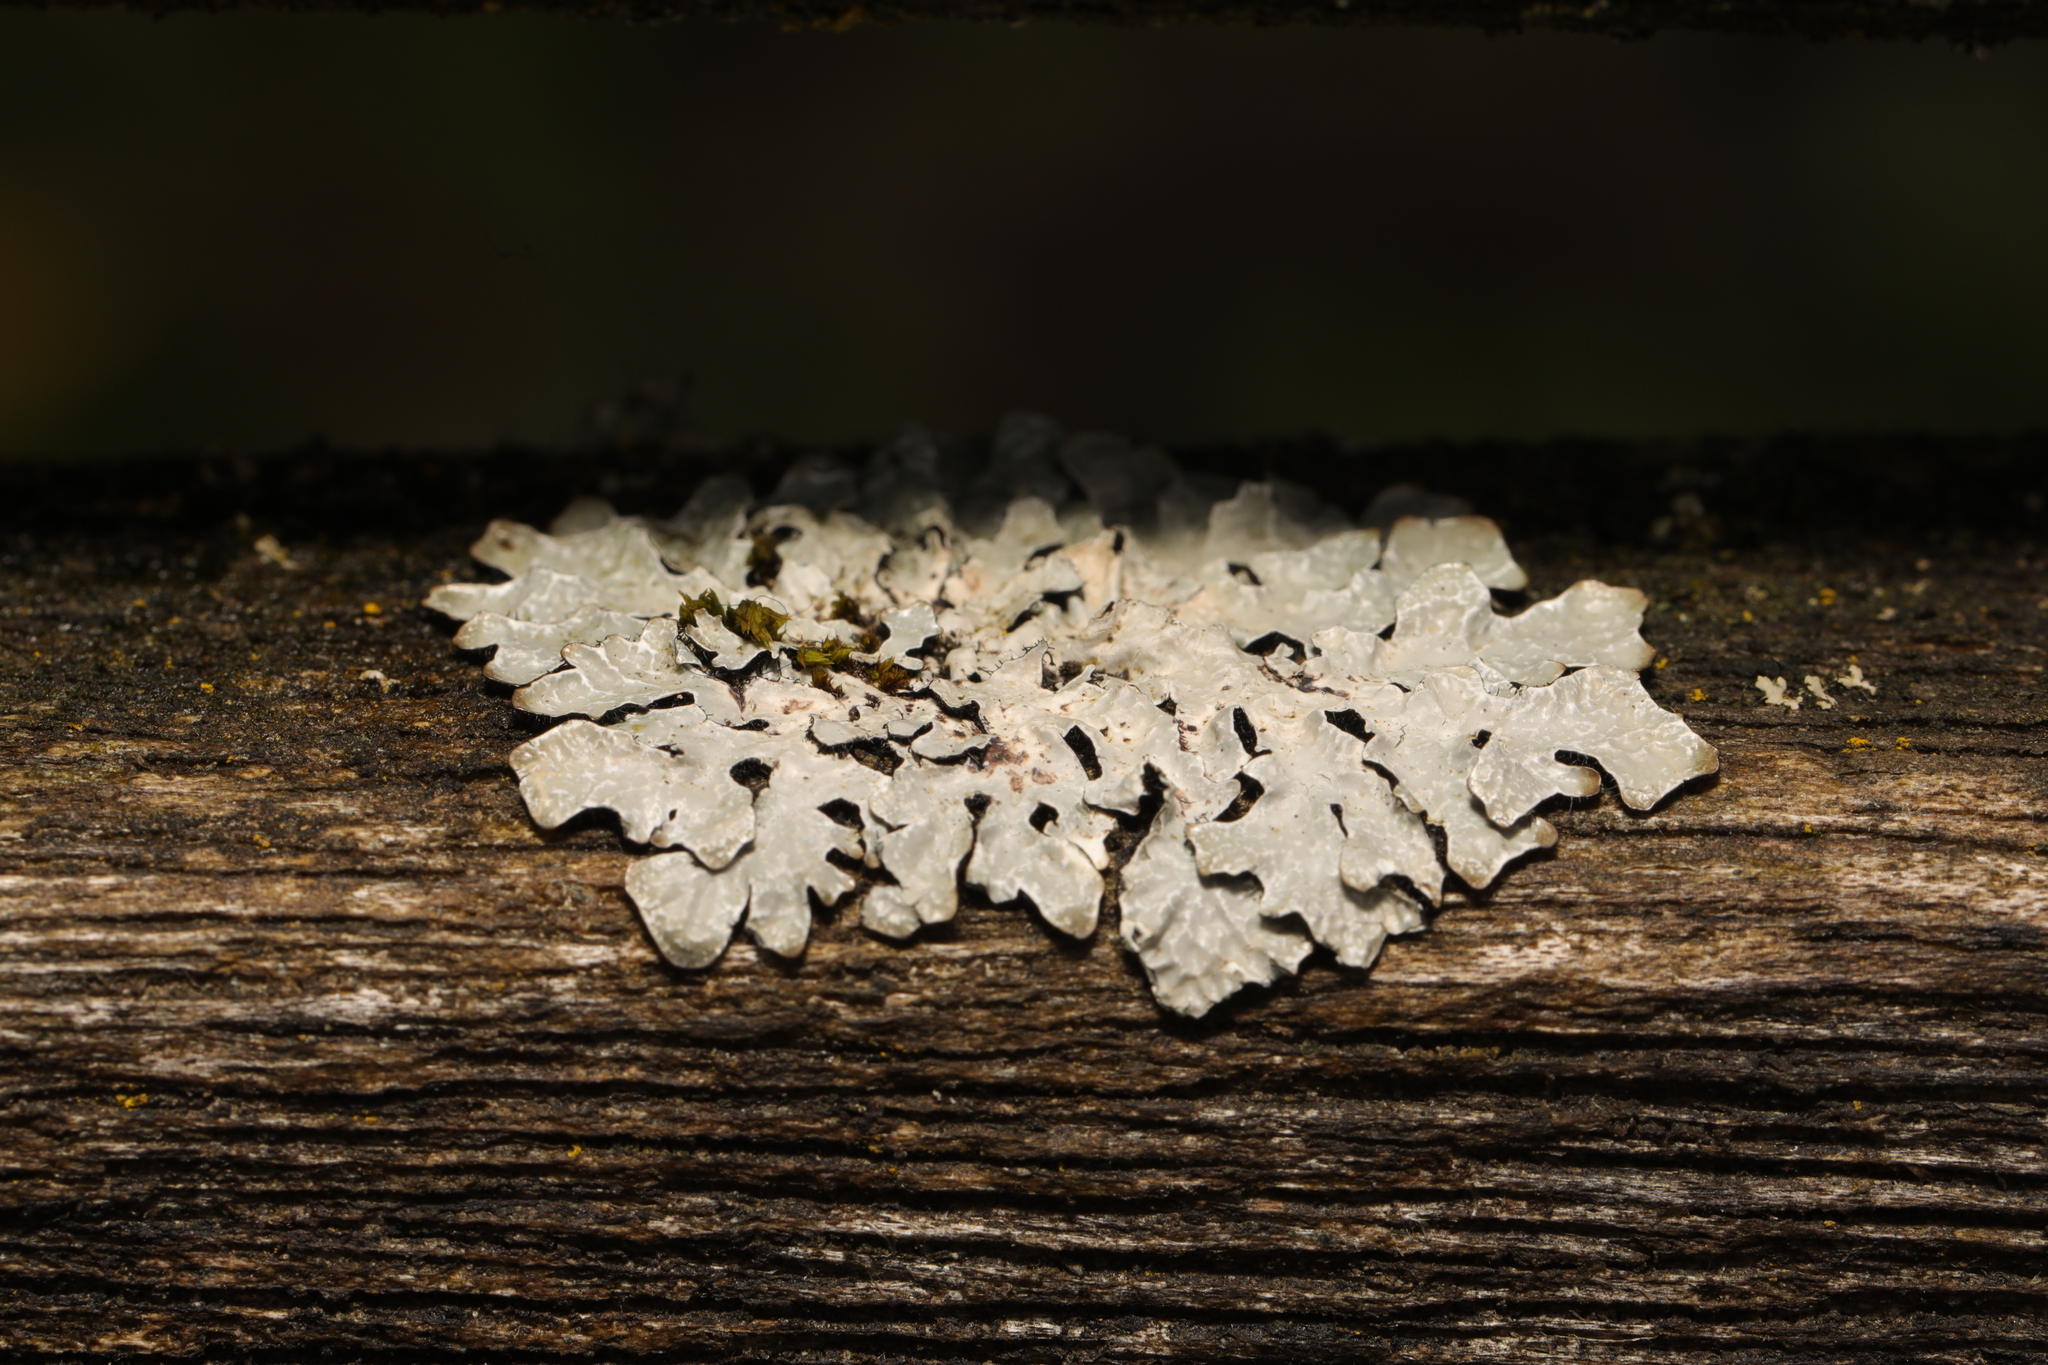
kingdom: Fungi
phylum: Ascomycota
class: Lecanoromycetes
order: Lecanorales
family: Parmeliaceae
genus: Parmelia
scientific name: Parmelia sulcata
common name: Netted shield lichen
